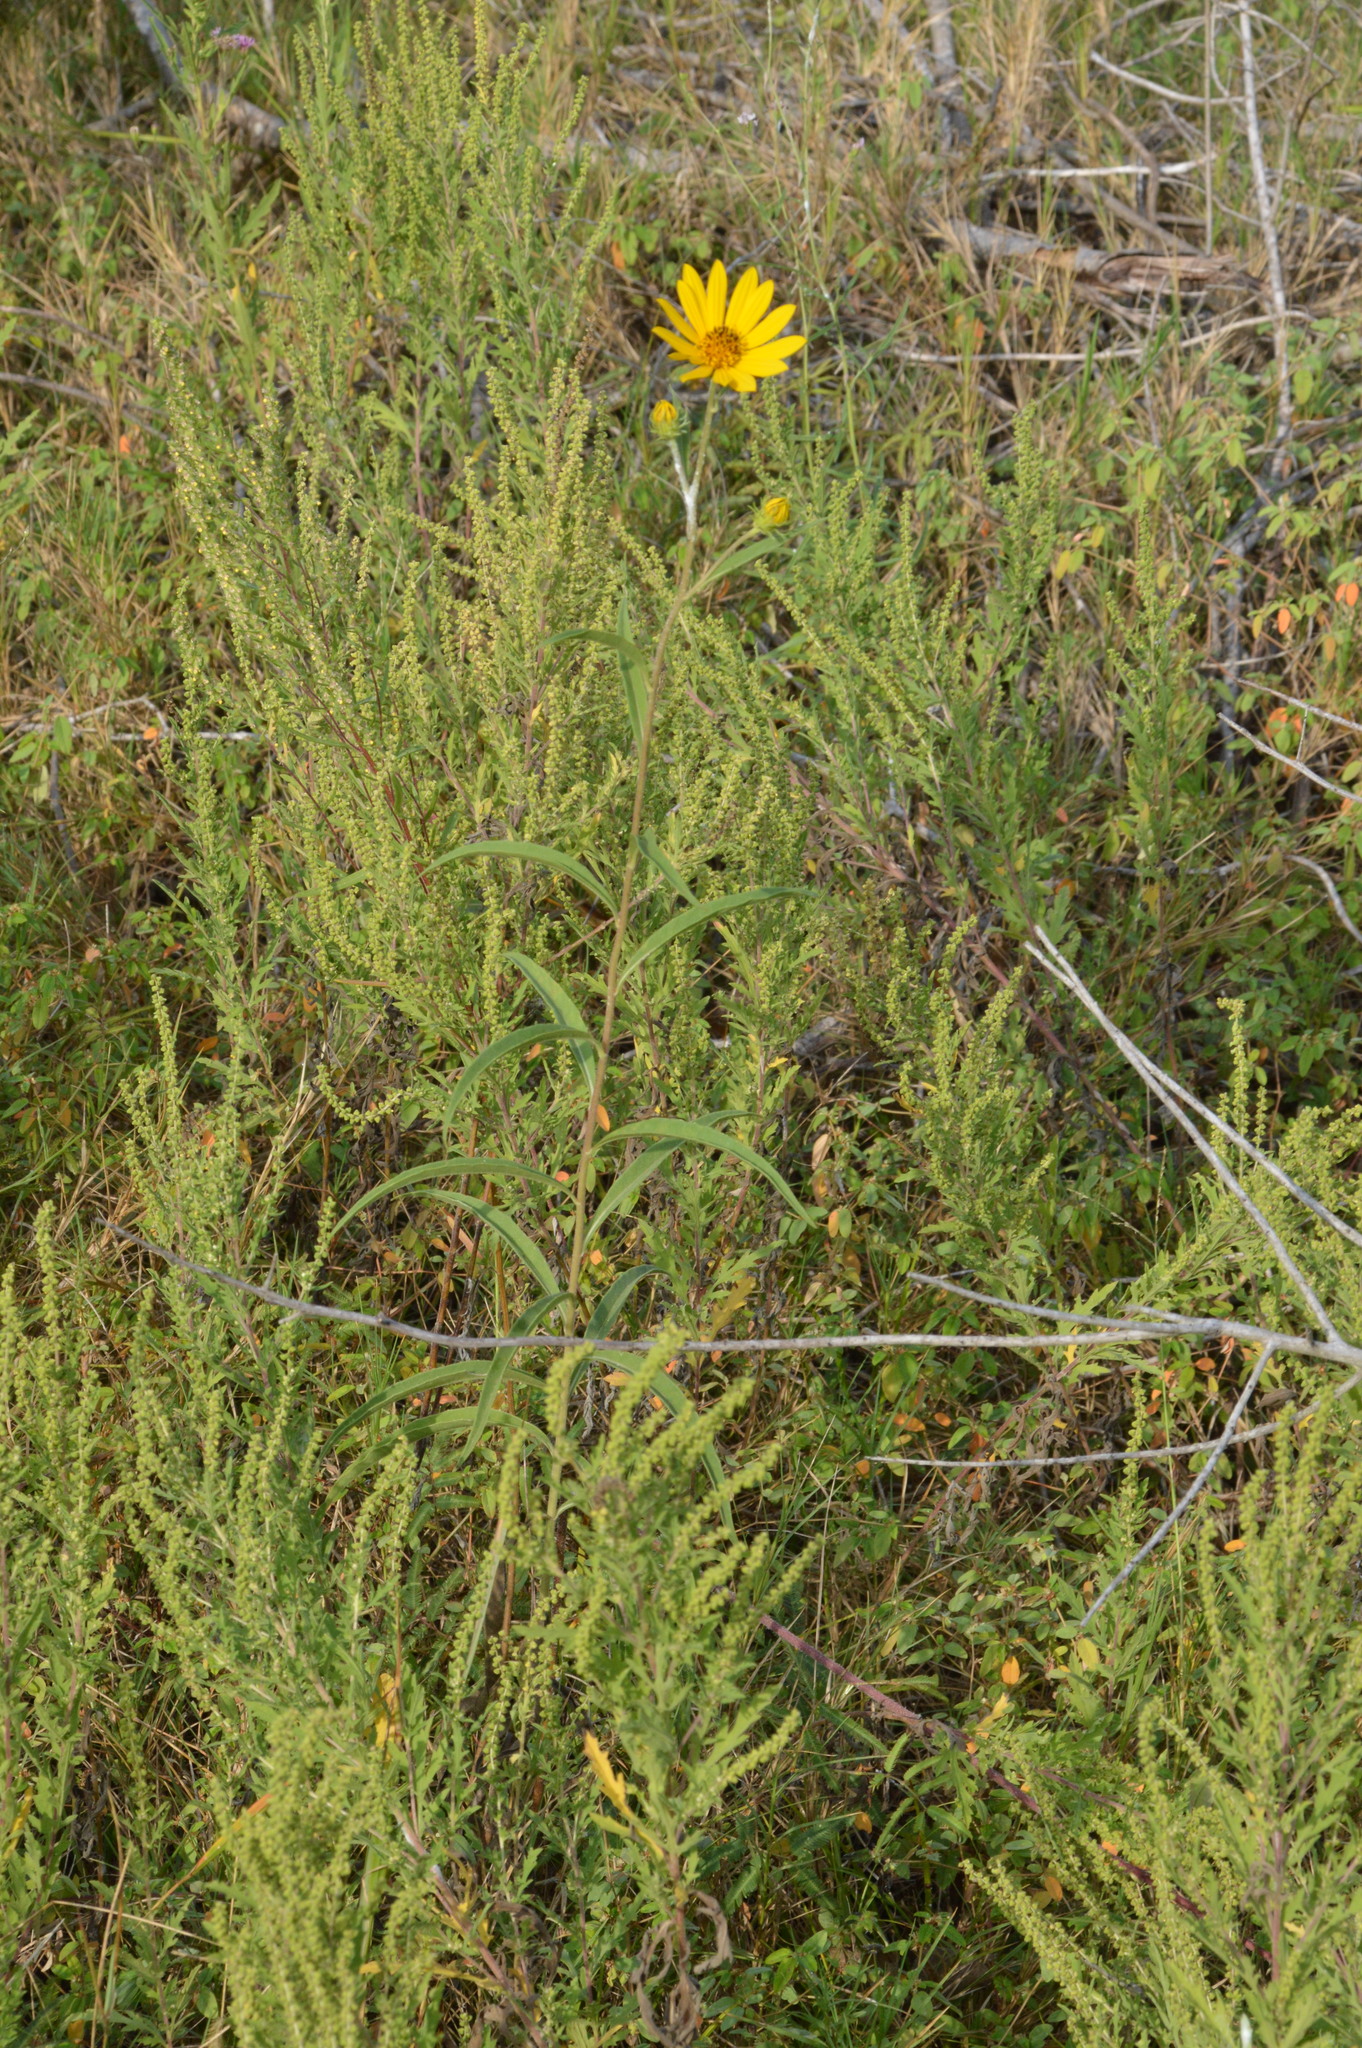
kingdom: Plantae
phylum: Tracheophyta
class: Magnoliopsida
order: Asterales
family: Asteraceae
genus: Helianthus
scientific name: Helianthus maximiliani
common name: Maximilian's sunflower
